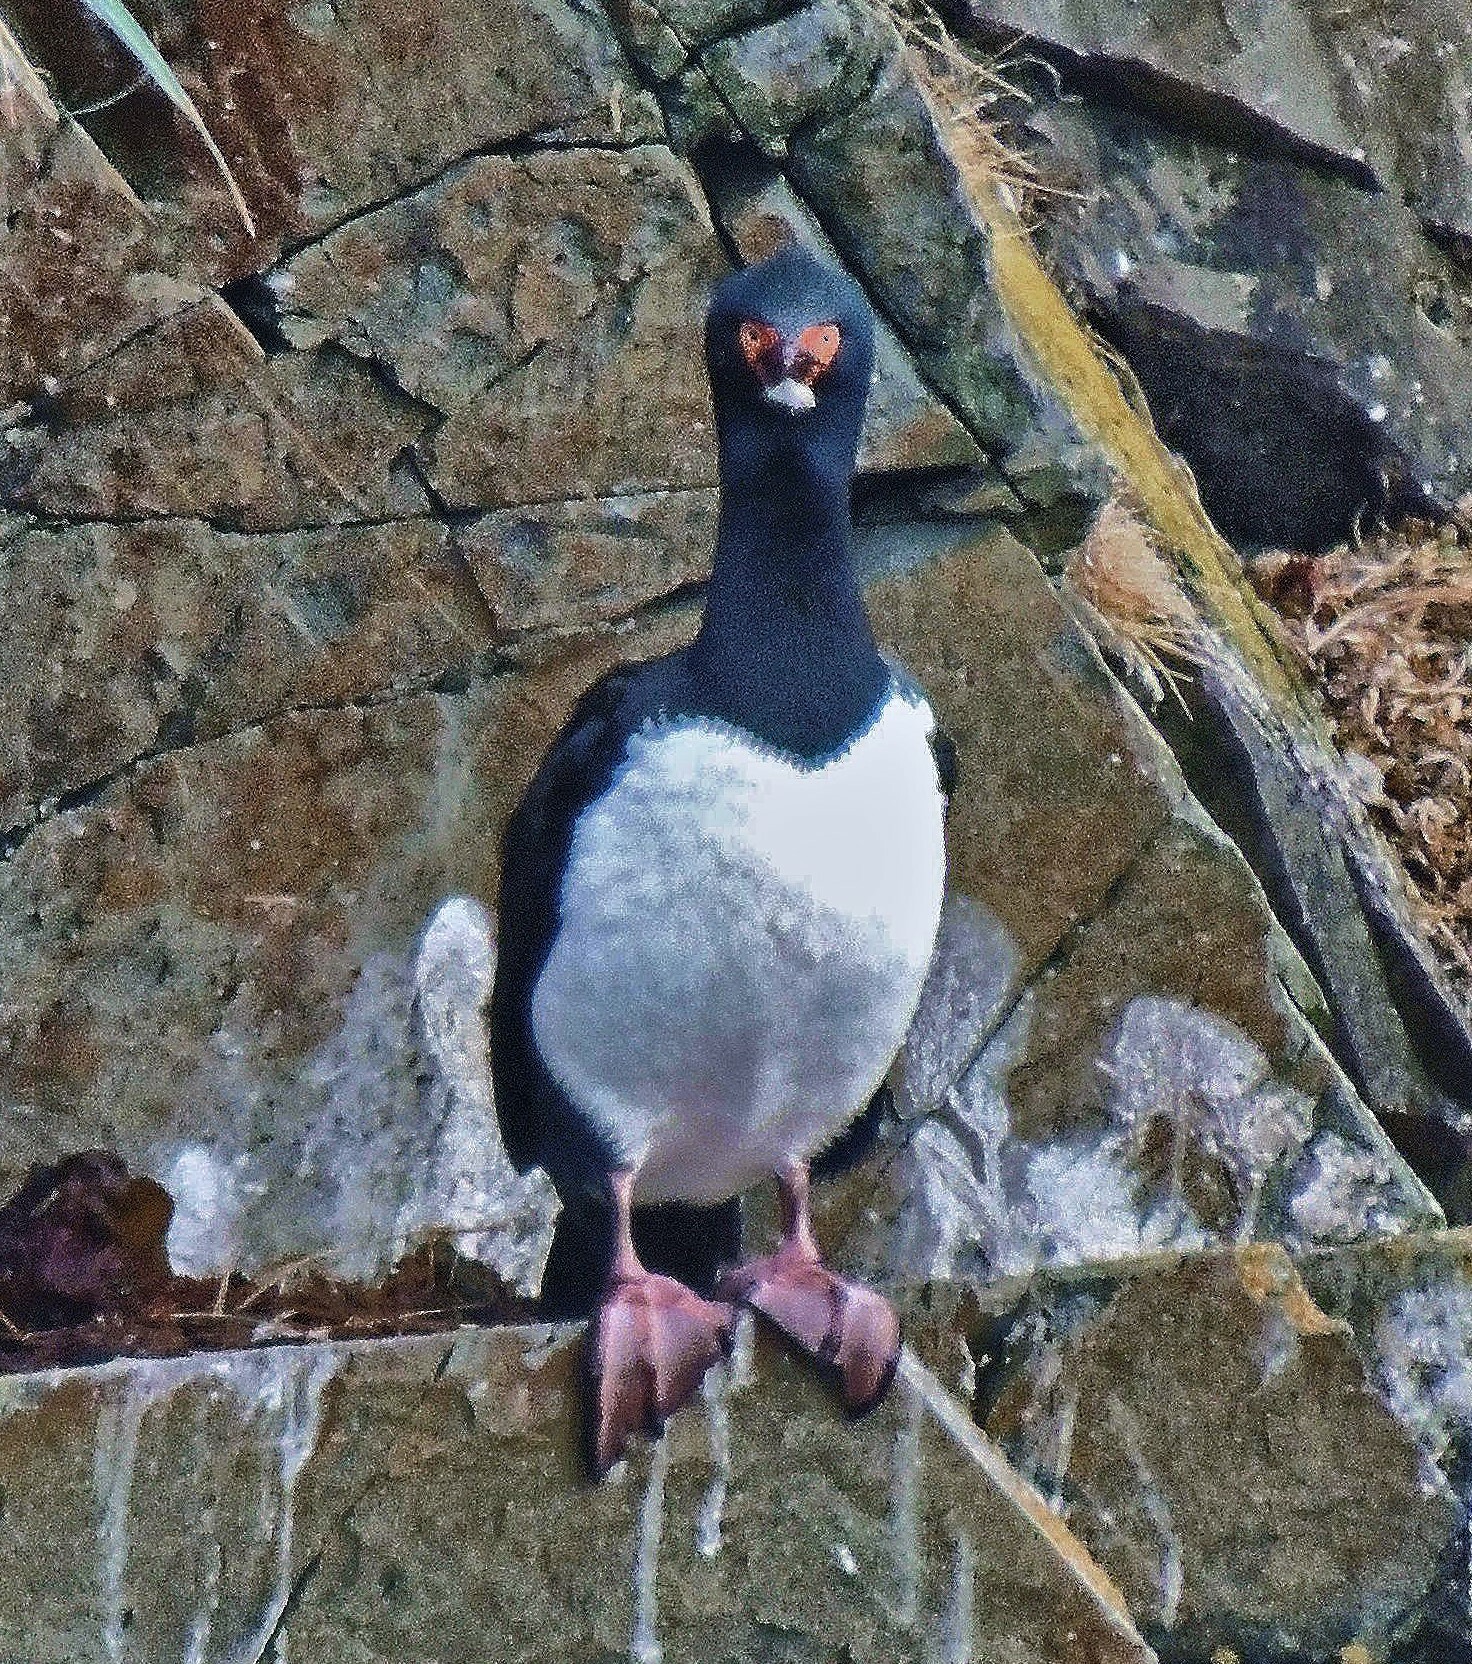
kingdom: Animalia
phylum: Chordata
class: Aves
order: Suliformes
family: Phalacrocoracidae
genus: Phalacrocorax
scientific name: Phalacrocorax magellanicus
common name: Rock shag
